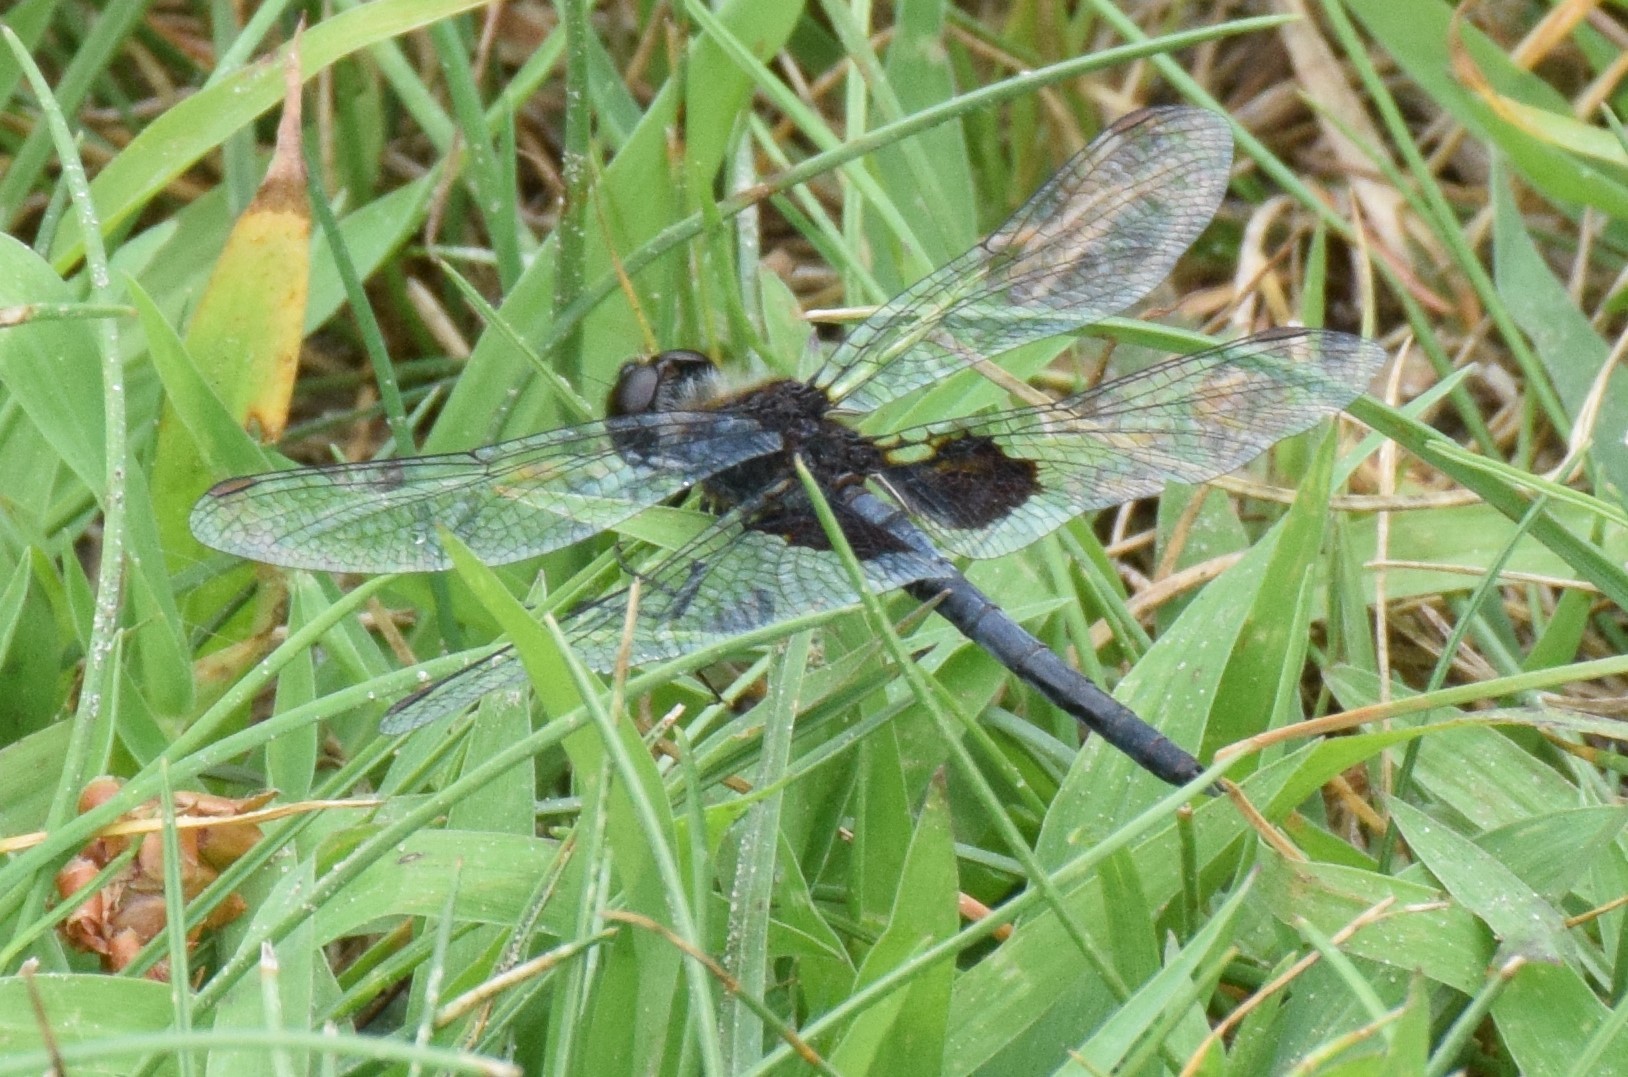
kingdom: Animalia
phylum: Arthropoda
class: Insecta
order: Odonata
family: Libellulidae
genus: Celithemis
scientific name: Celithemis martha
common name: Martha's pennant
